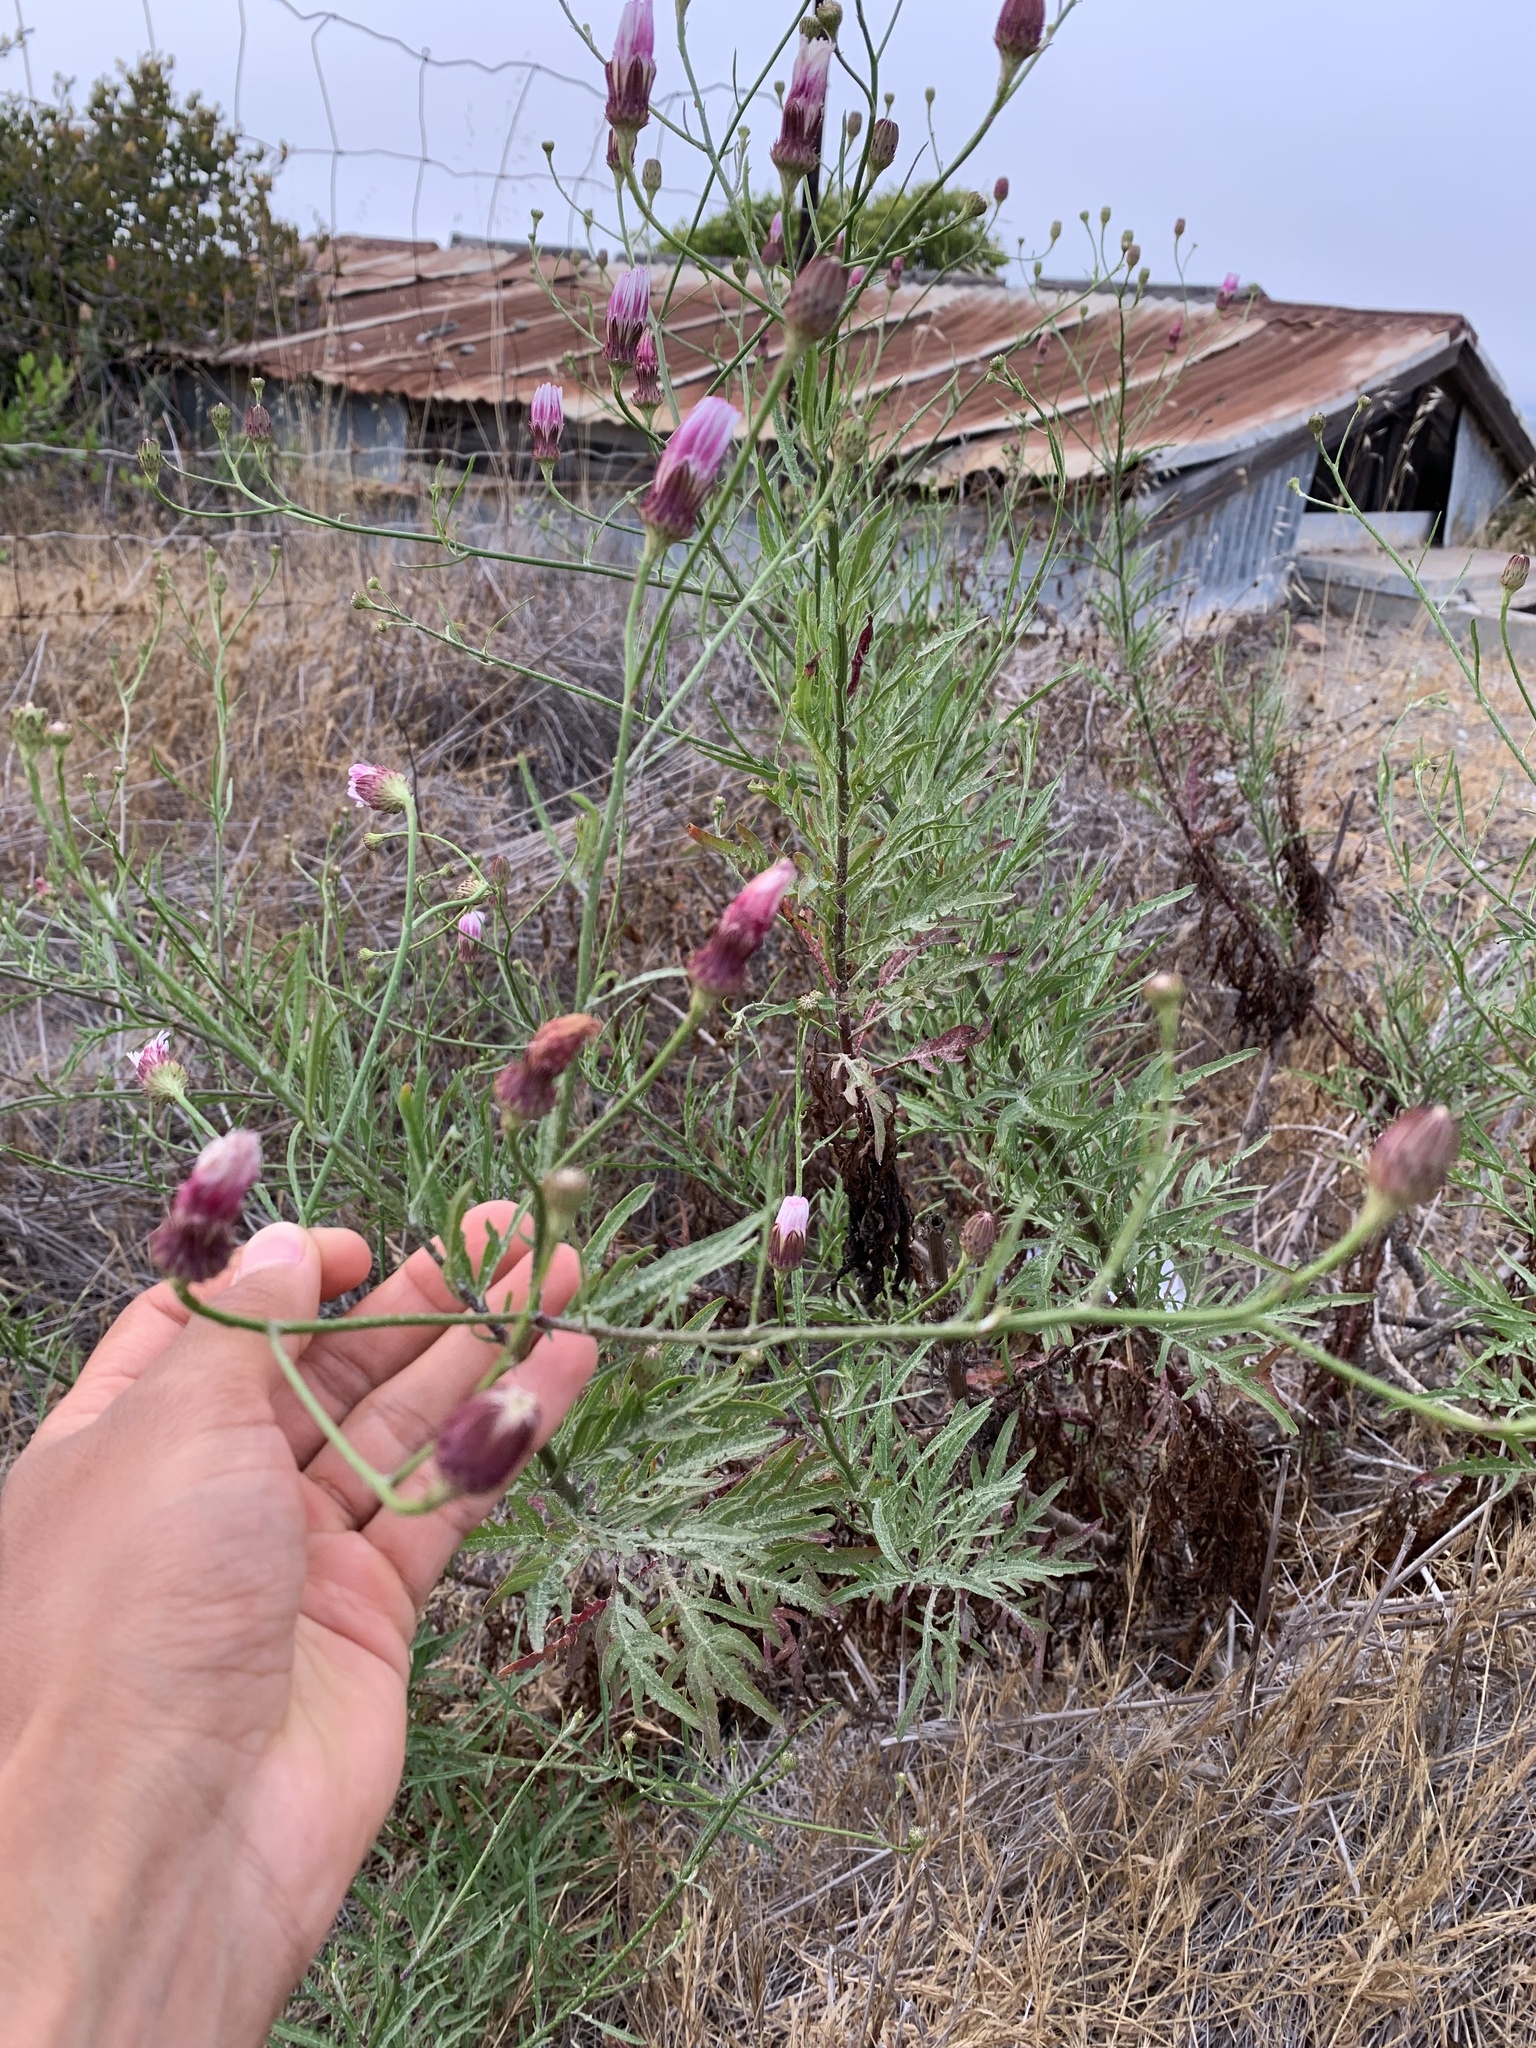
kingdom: Plantae
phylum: Tracheophyta
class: Magnoliopsida
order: Asterales
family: Asteraceae
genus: Malacothrix
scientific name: Malacothrix saxatilis
